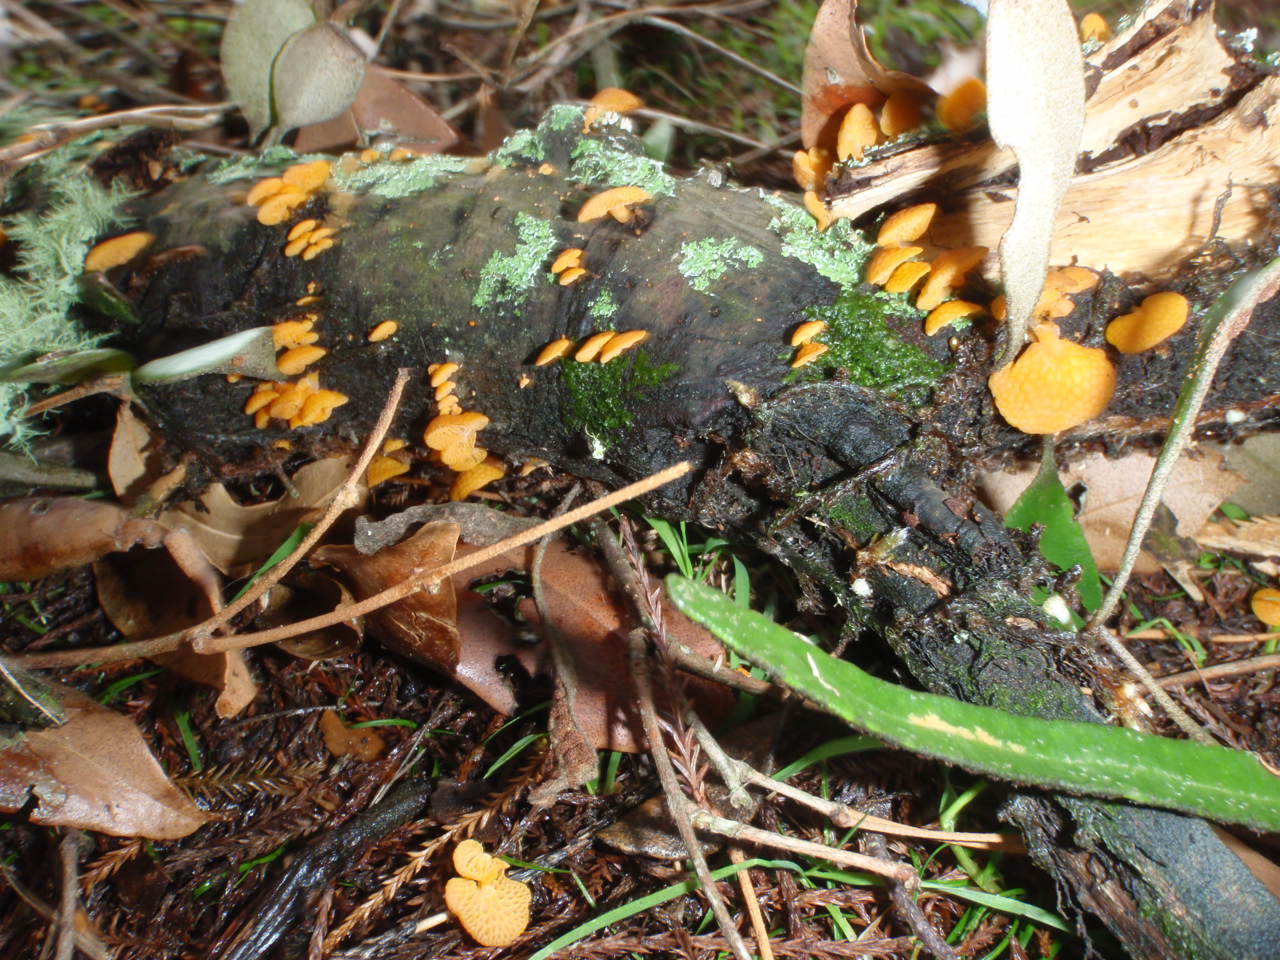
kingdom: Fungi
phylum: Basidiomycota
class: Agaricomycetes
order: Agaricales
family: Mycenaceae
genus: Favolaschia
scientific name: Favolaschia claudopus
